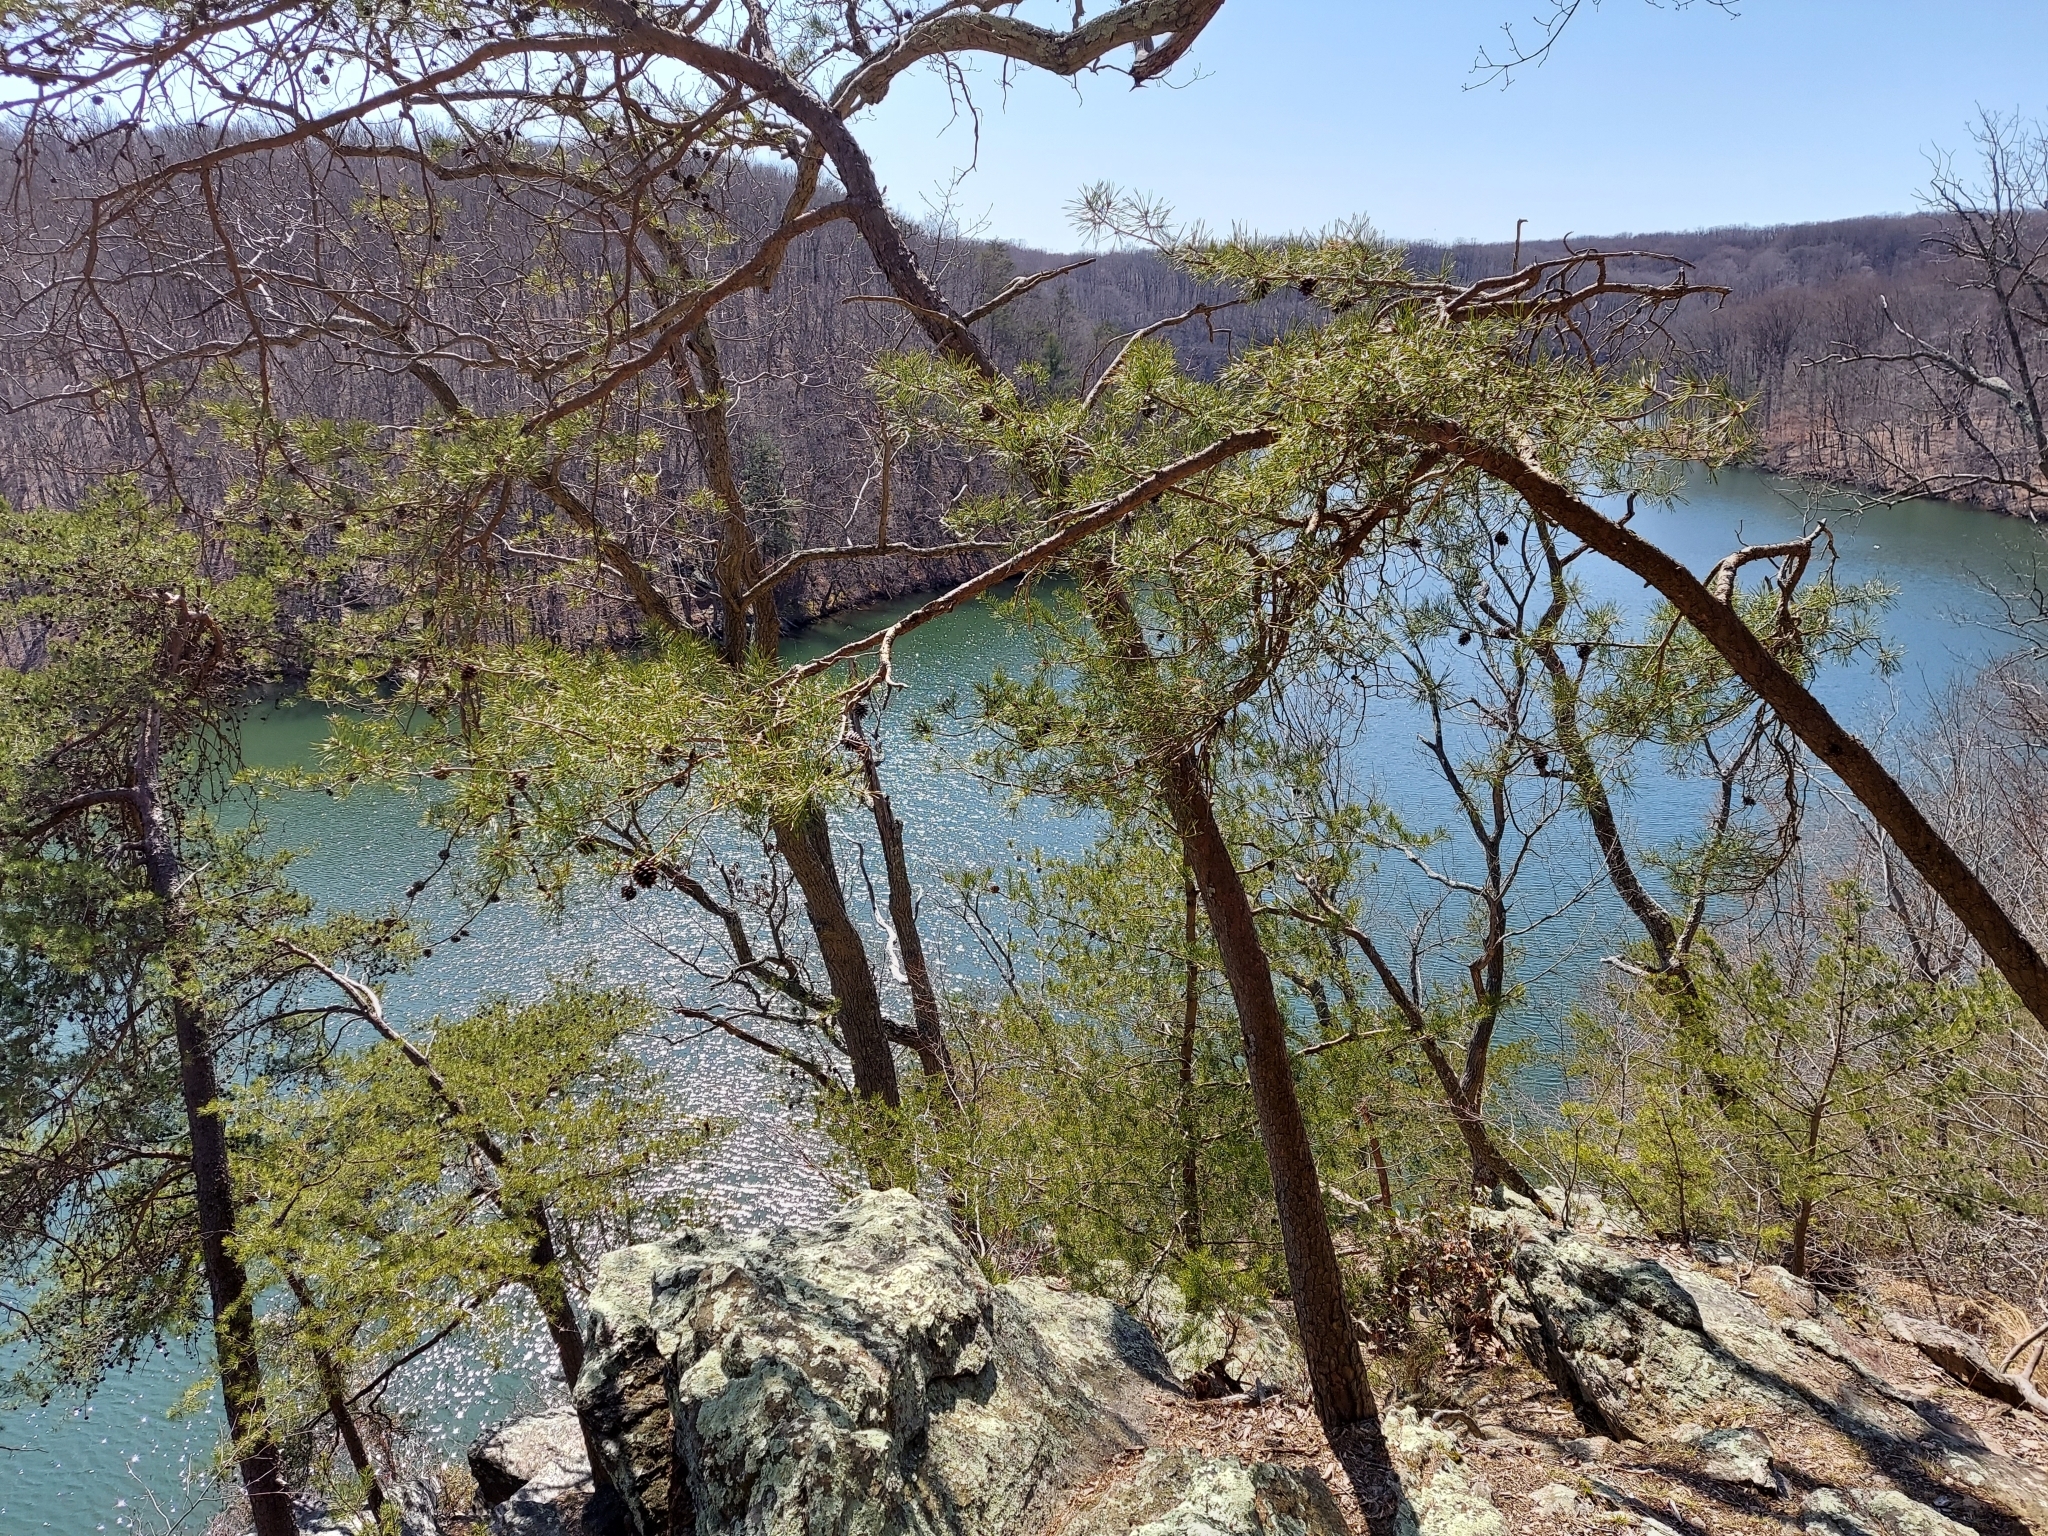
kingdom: Plantae
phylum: Tracheophyta
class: Pinopsida
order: Pinales
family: Pinaceae
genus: Pinus
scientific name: Pinus virginiana
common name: Scrub pine
